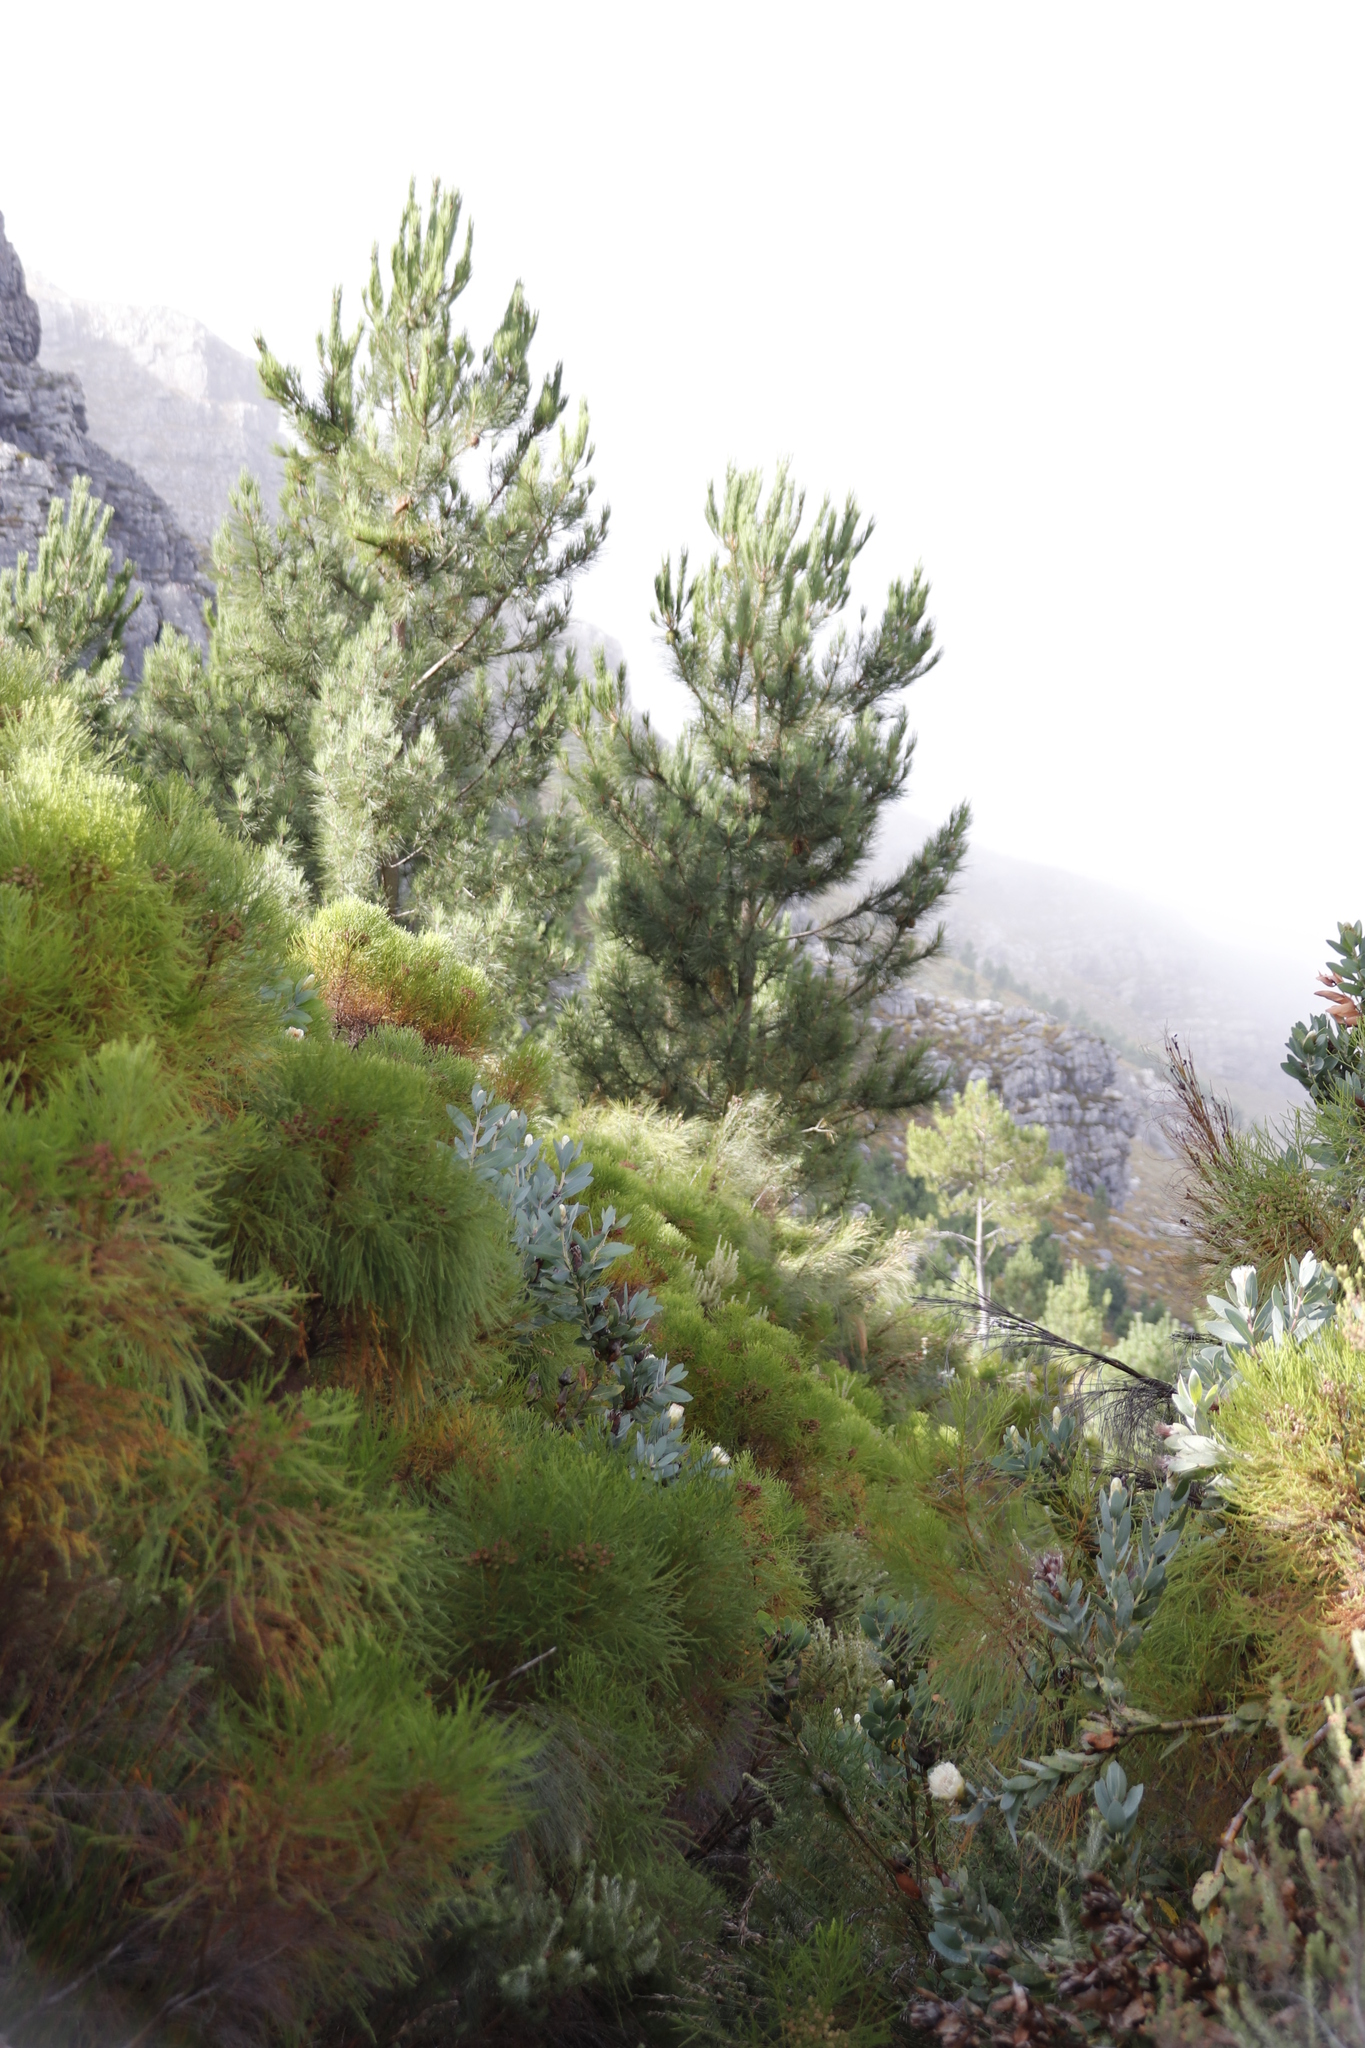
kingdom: Plantae
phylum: Tracheophyta
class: Pinopsida
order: Pinales
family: Pinaceae
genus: Pinus
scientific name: Pinus radiata
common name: Monterey pine
